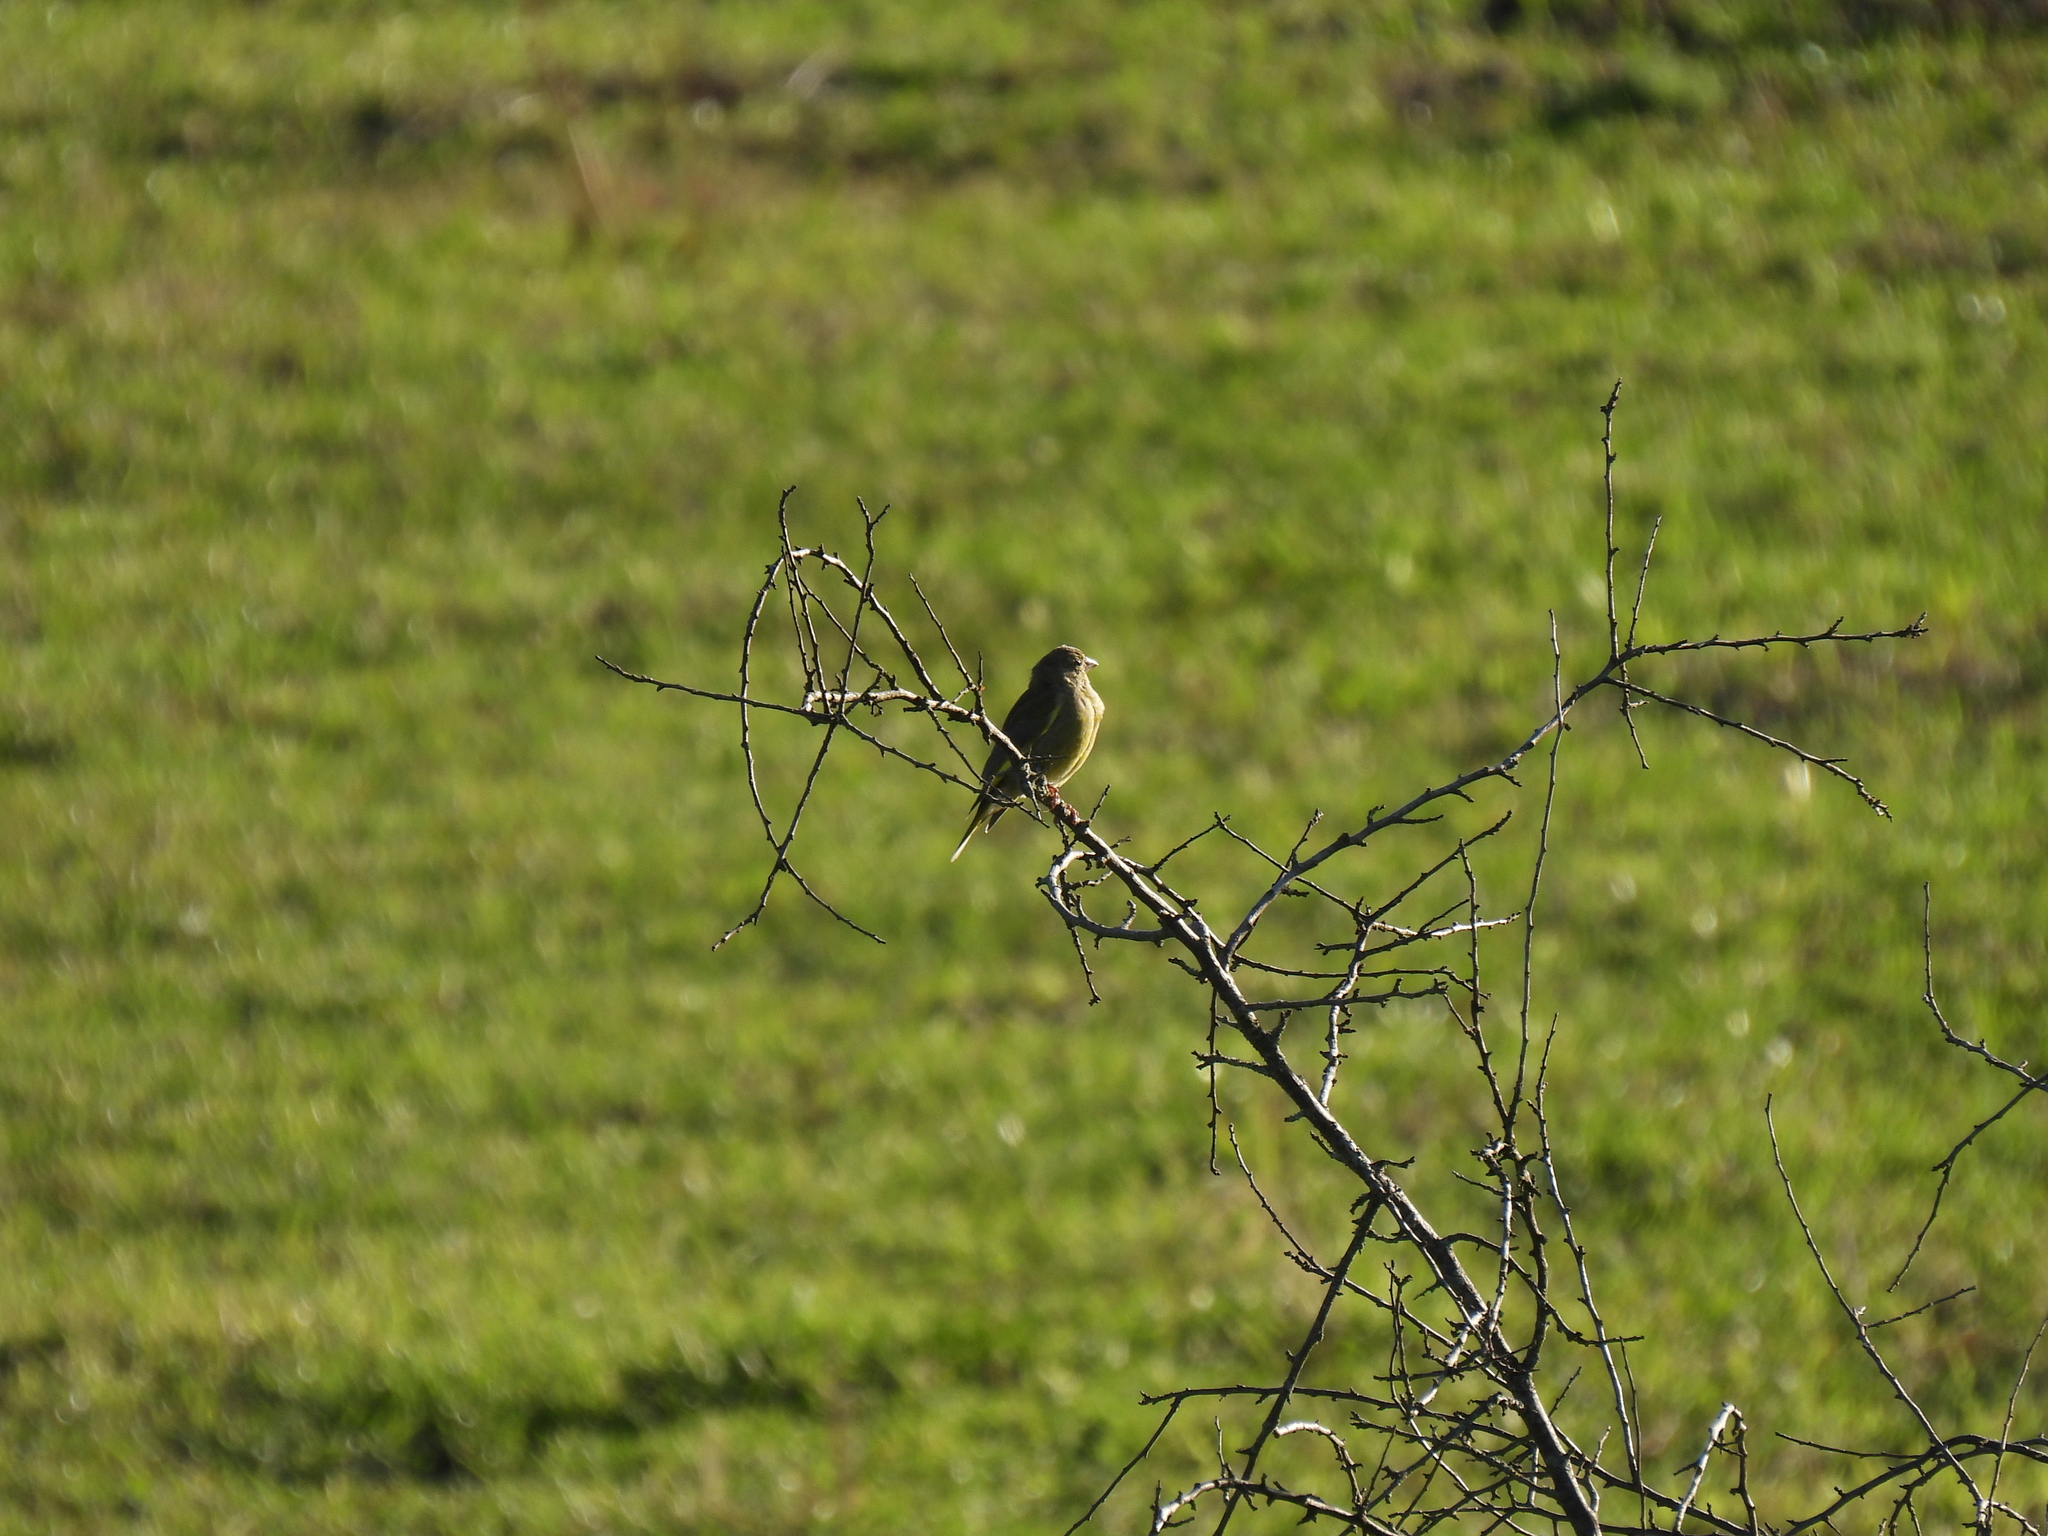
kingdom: Plantae
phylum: Tracheophyta
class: Liliopsida
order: Poales
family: Poaceae
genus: Chloris
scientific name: Chloris chloris
